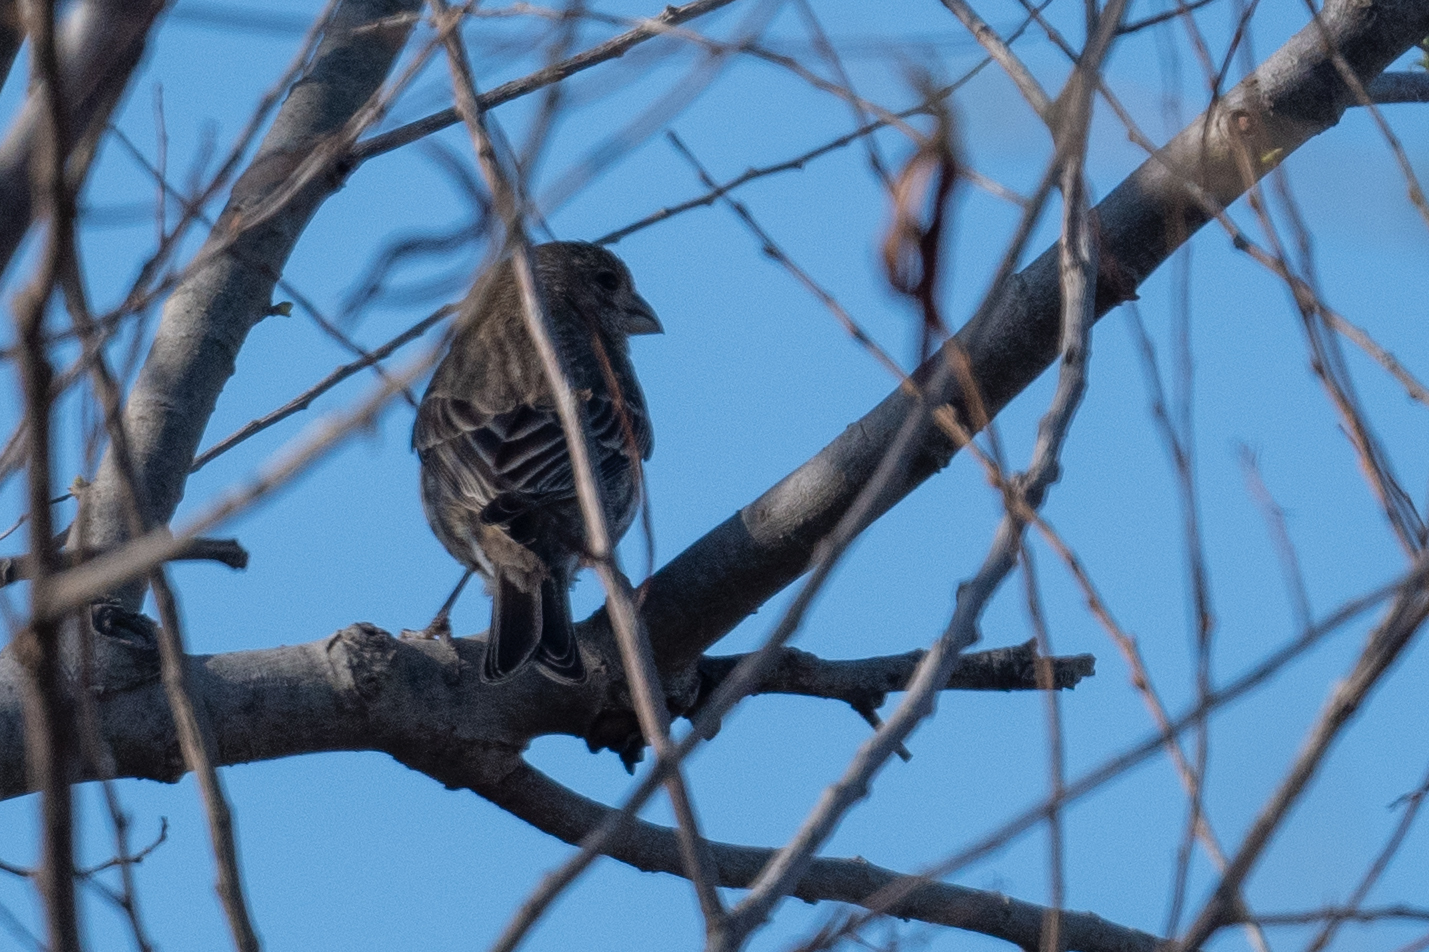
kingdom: Animalia
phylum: Chordata
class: Aves
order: Passeriformes
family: Fringillidae
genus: Haemorhous
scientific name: Haemorhous mexicanus
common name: House finch
